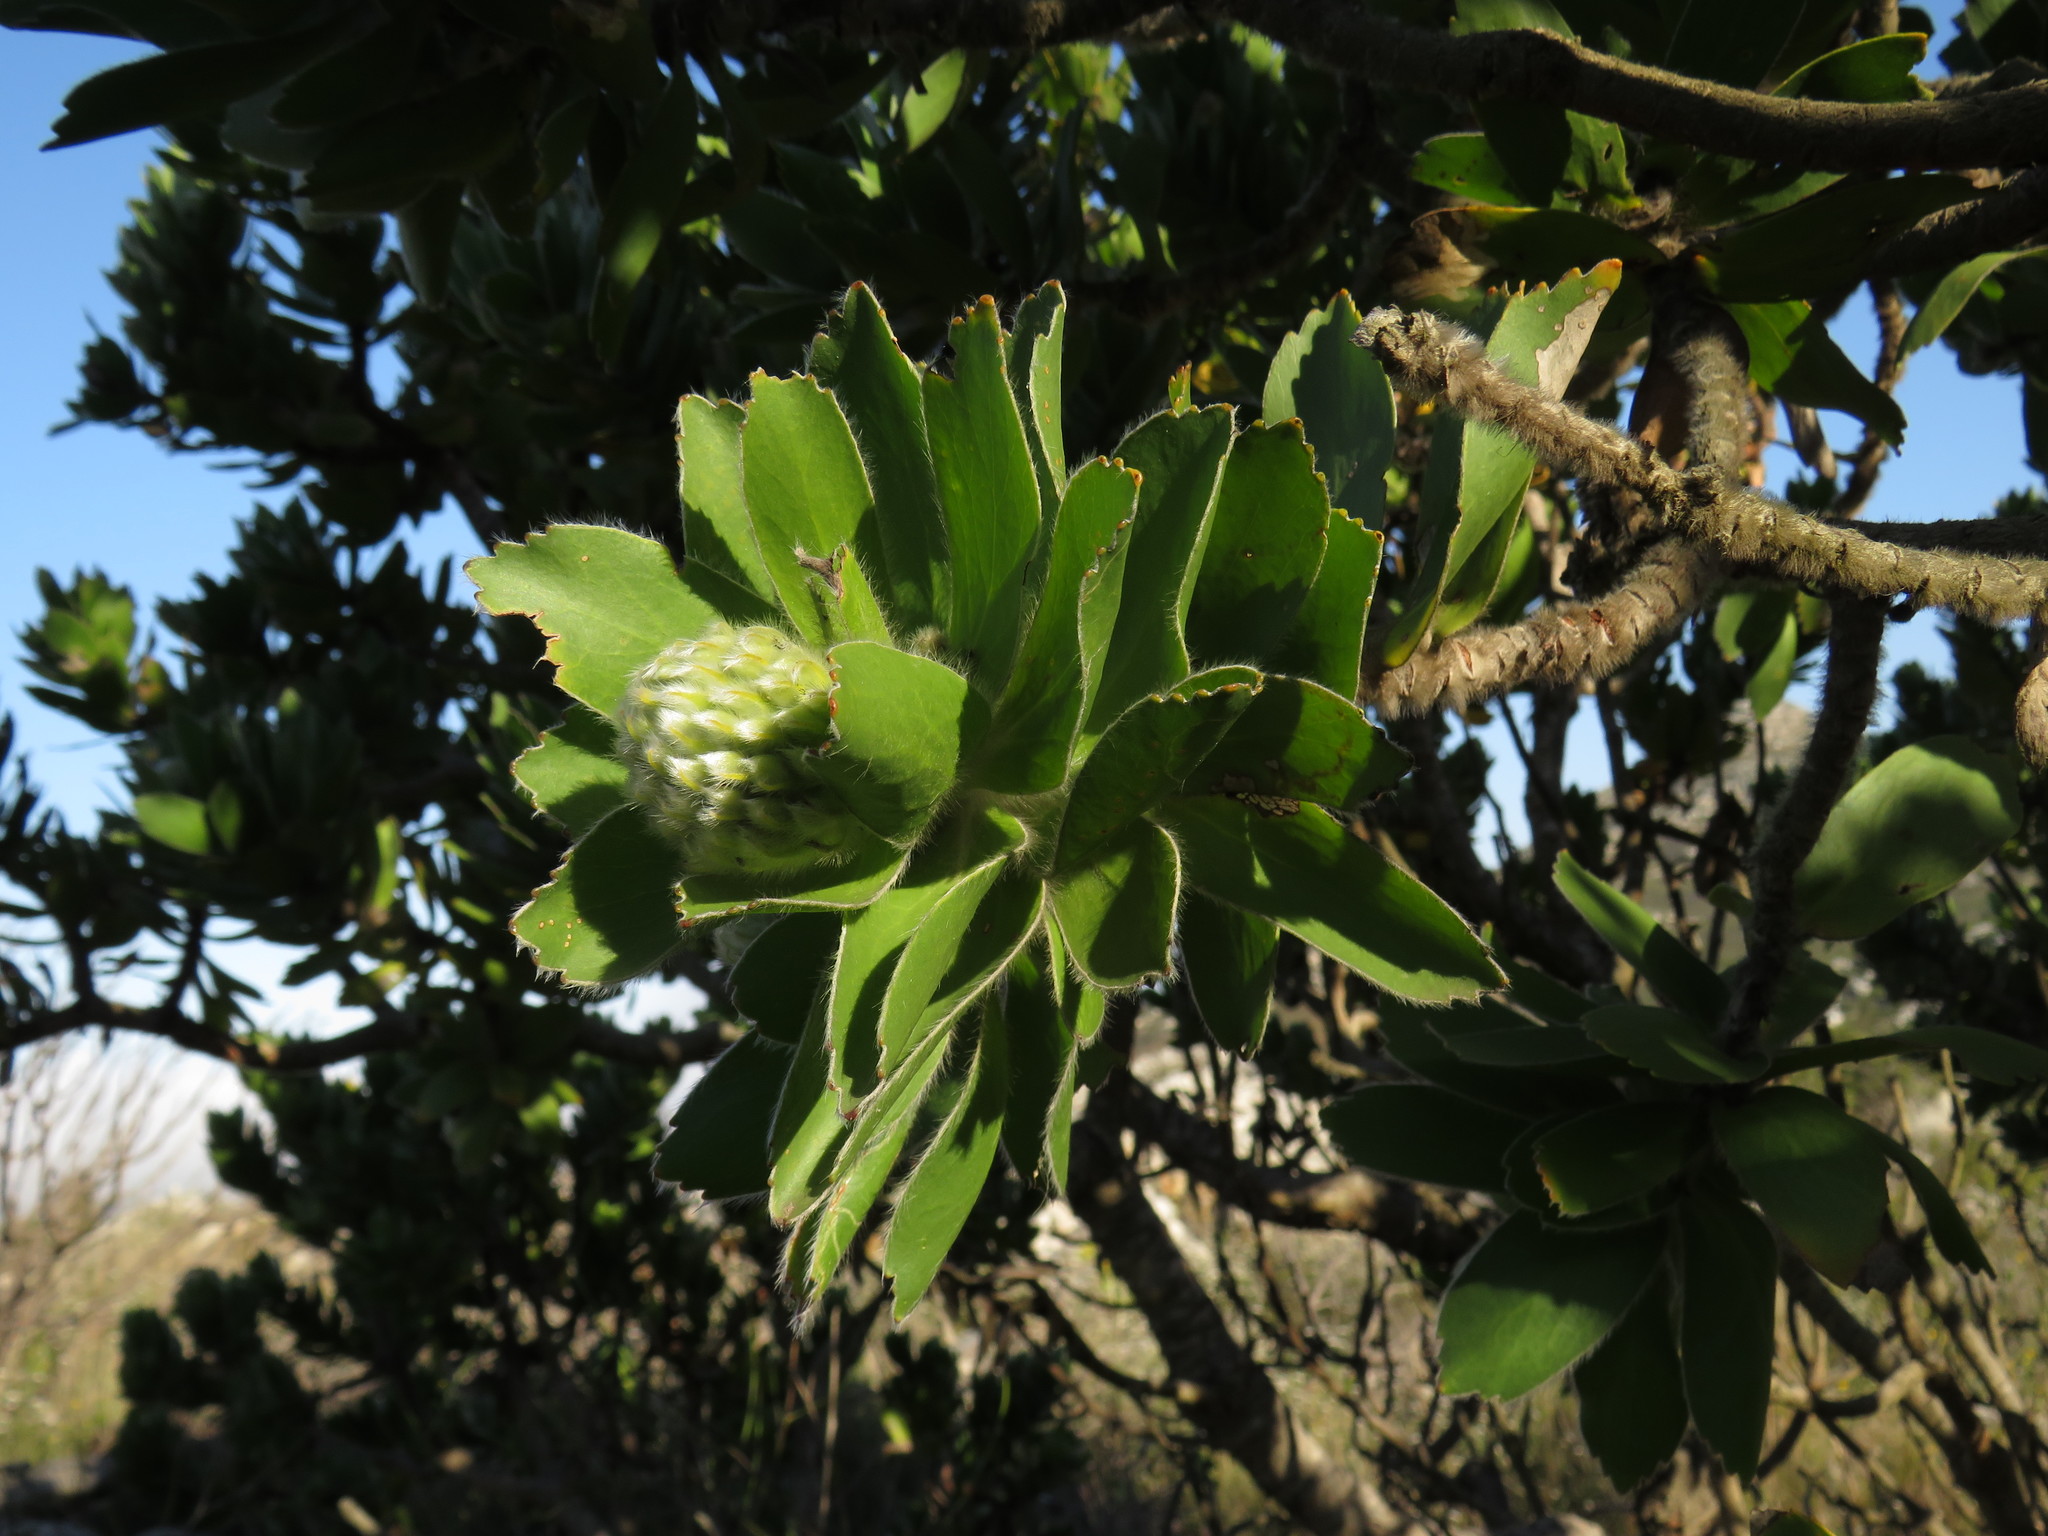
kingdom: Plantae
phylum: Tracheophyta
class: Magnoliopsida
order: Proteales
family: Proteaceae
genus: Leucospermum
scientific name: Leucospermum conocarpodendron
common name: Tree pincushion
